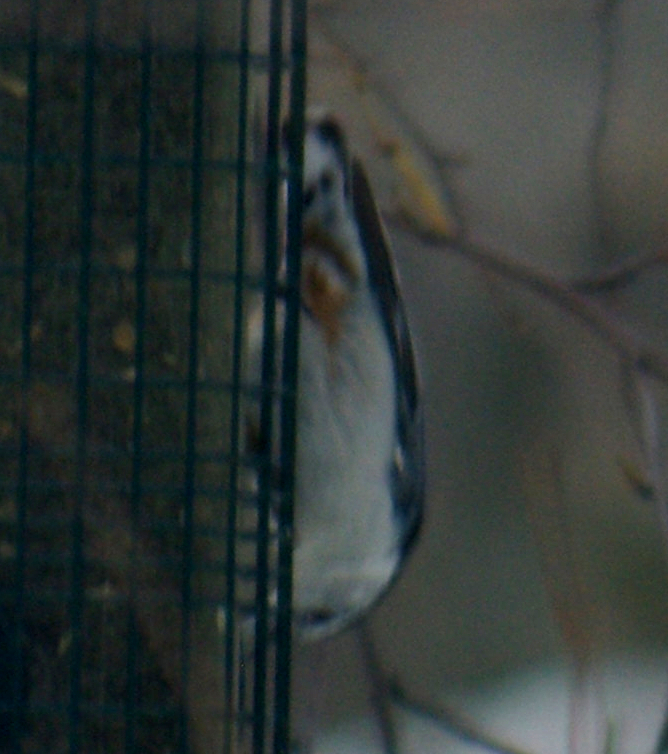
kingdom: Animalia
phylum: Chordata
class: Aves
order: Passeriformes
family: Sittidae
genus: Sitta
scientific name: Sitta carolinensis
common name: White-breasted nuthatch
